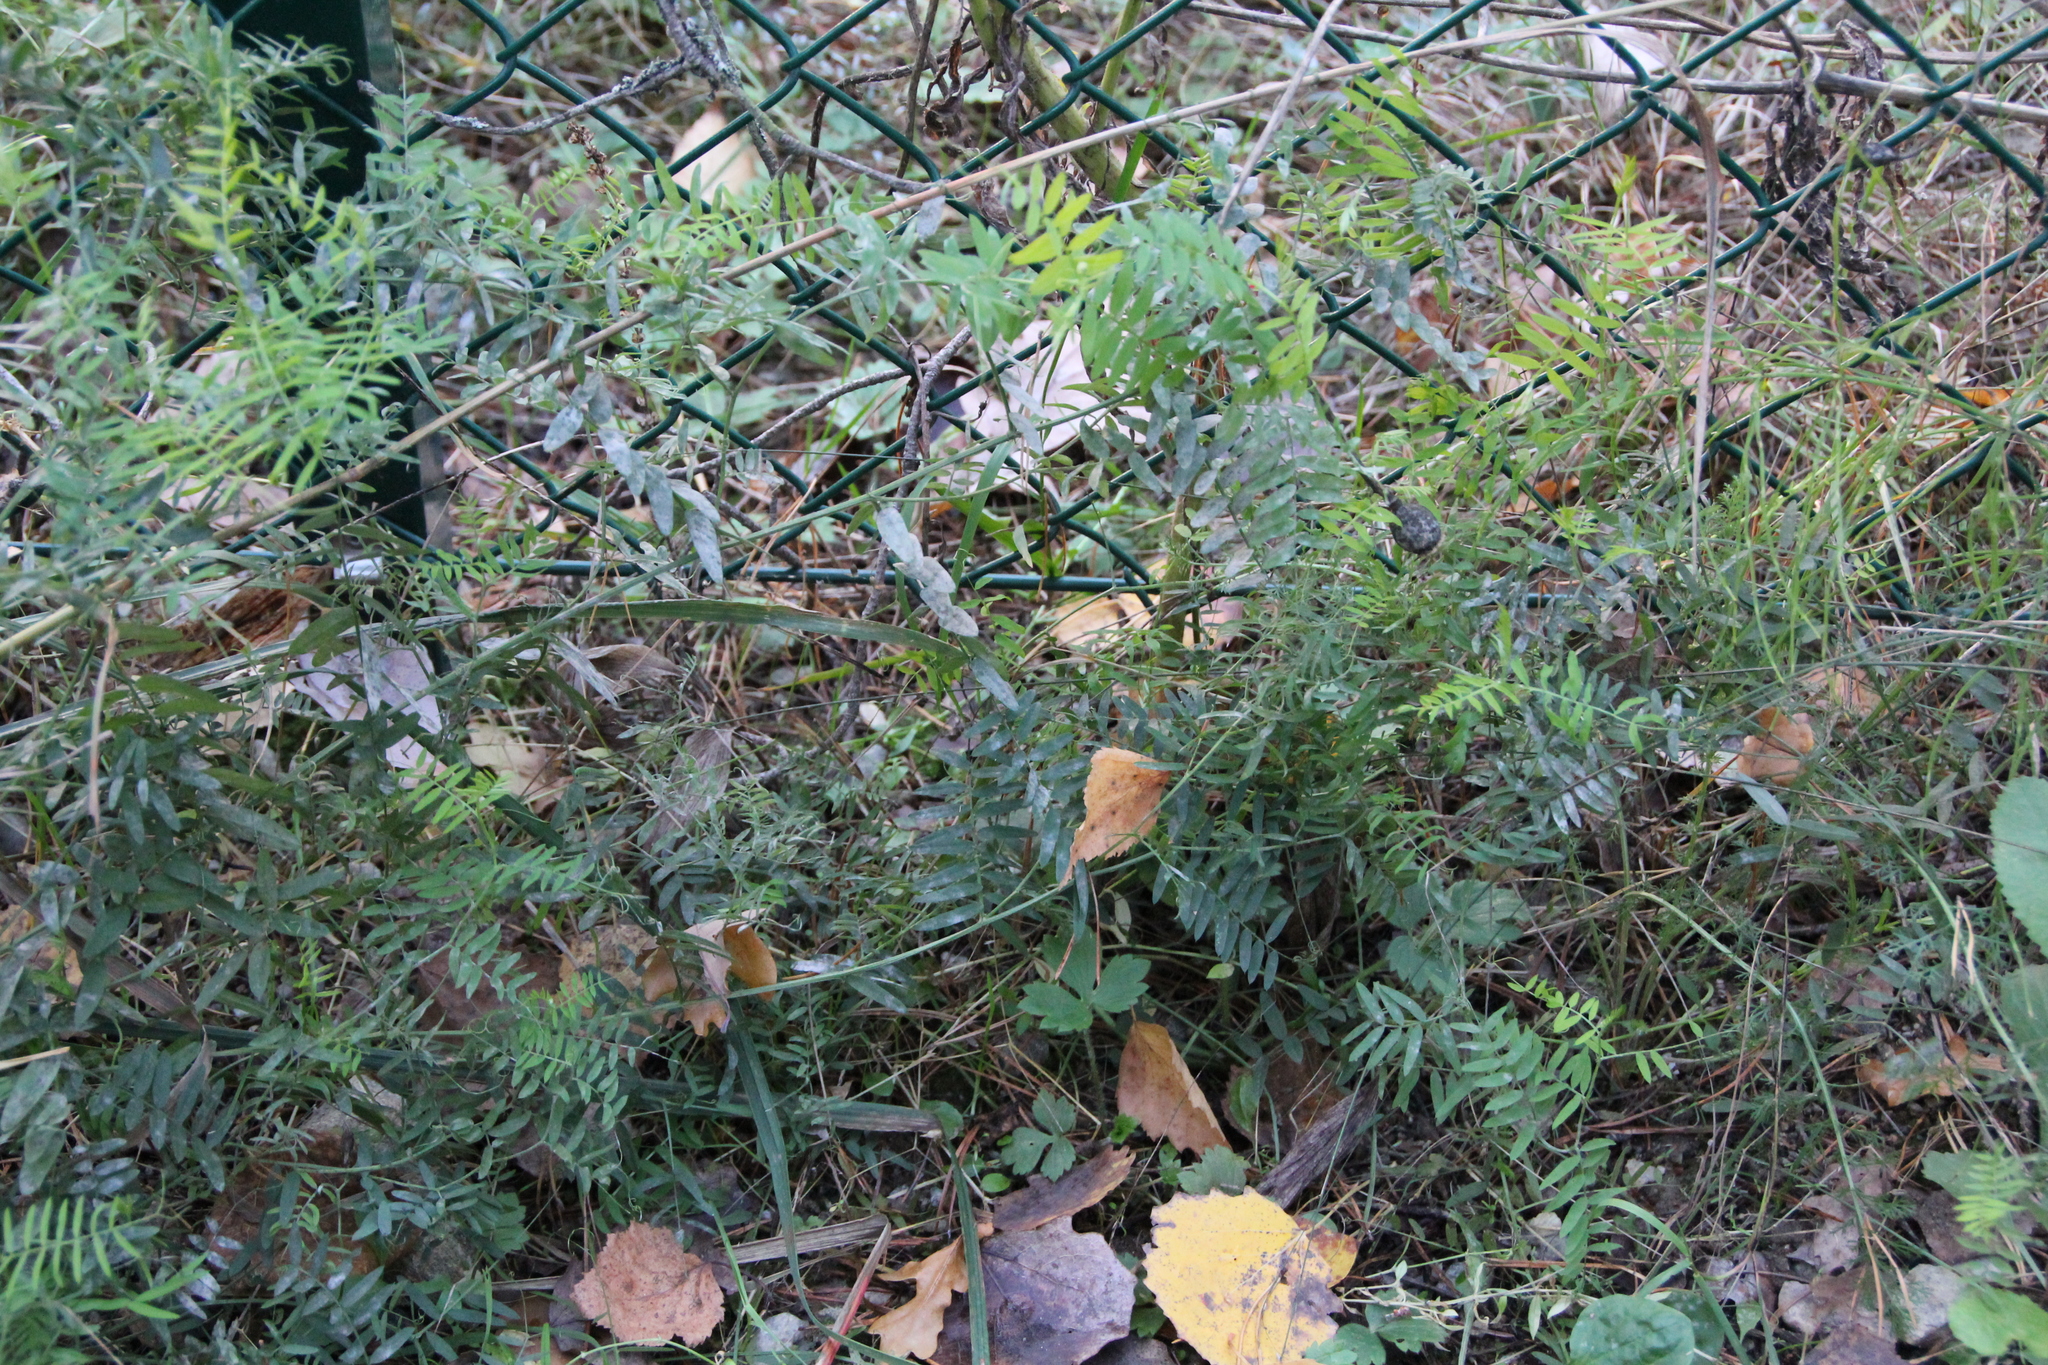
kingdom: Plantae
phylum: Tracheophyta
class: Magnoliopsida
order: Fabales
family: Fabaceae
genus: Vicia
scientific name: Vicia cracca
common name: Bird vetch
